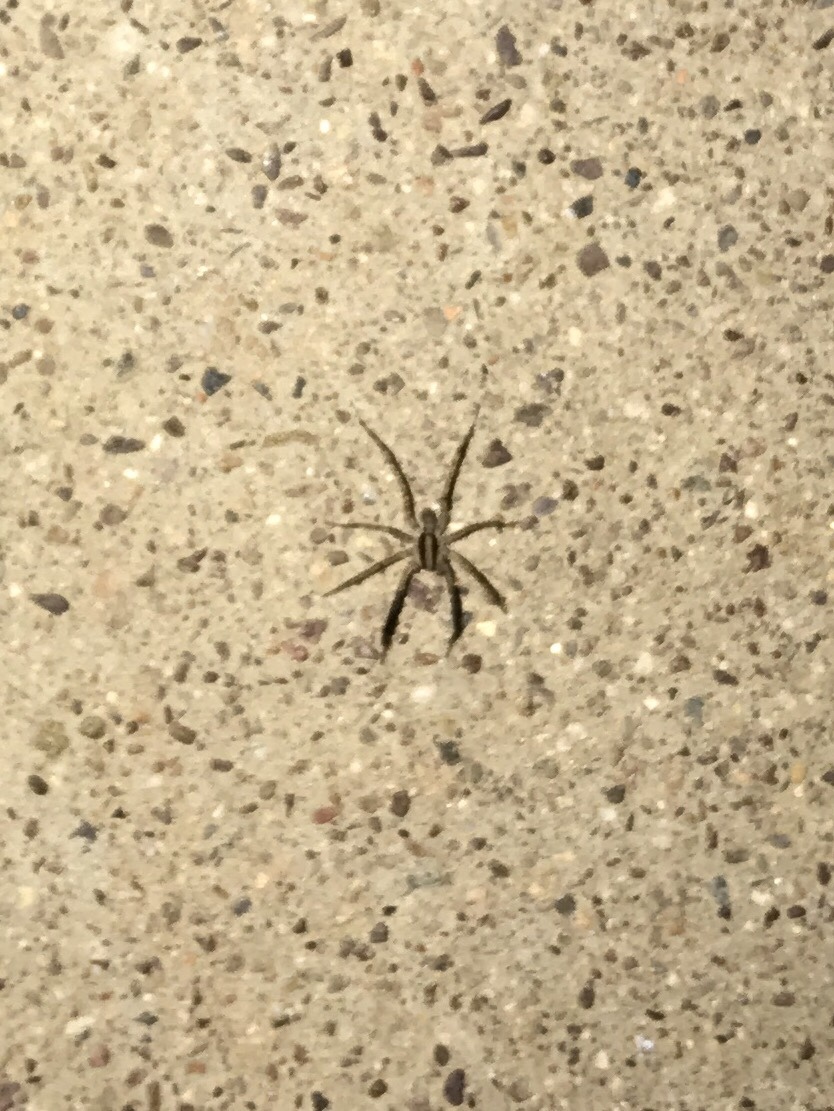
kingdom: Animalia
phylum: Arthropoda
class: Arachnida
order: Araneae
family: Lycosidae
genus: Camptocosa
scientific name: Camptocosa parallela
